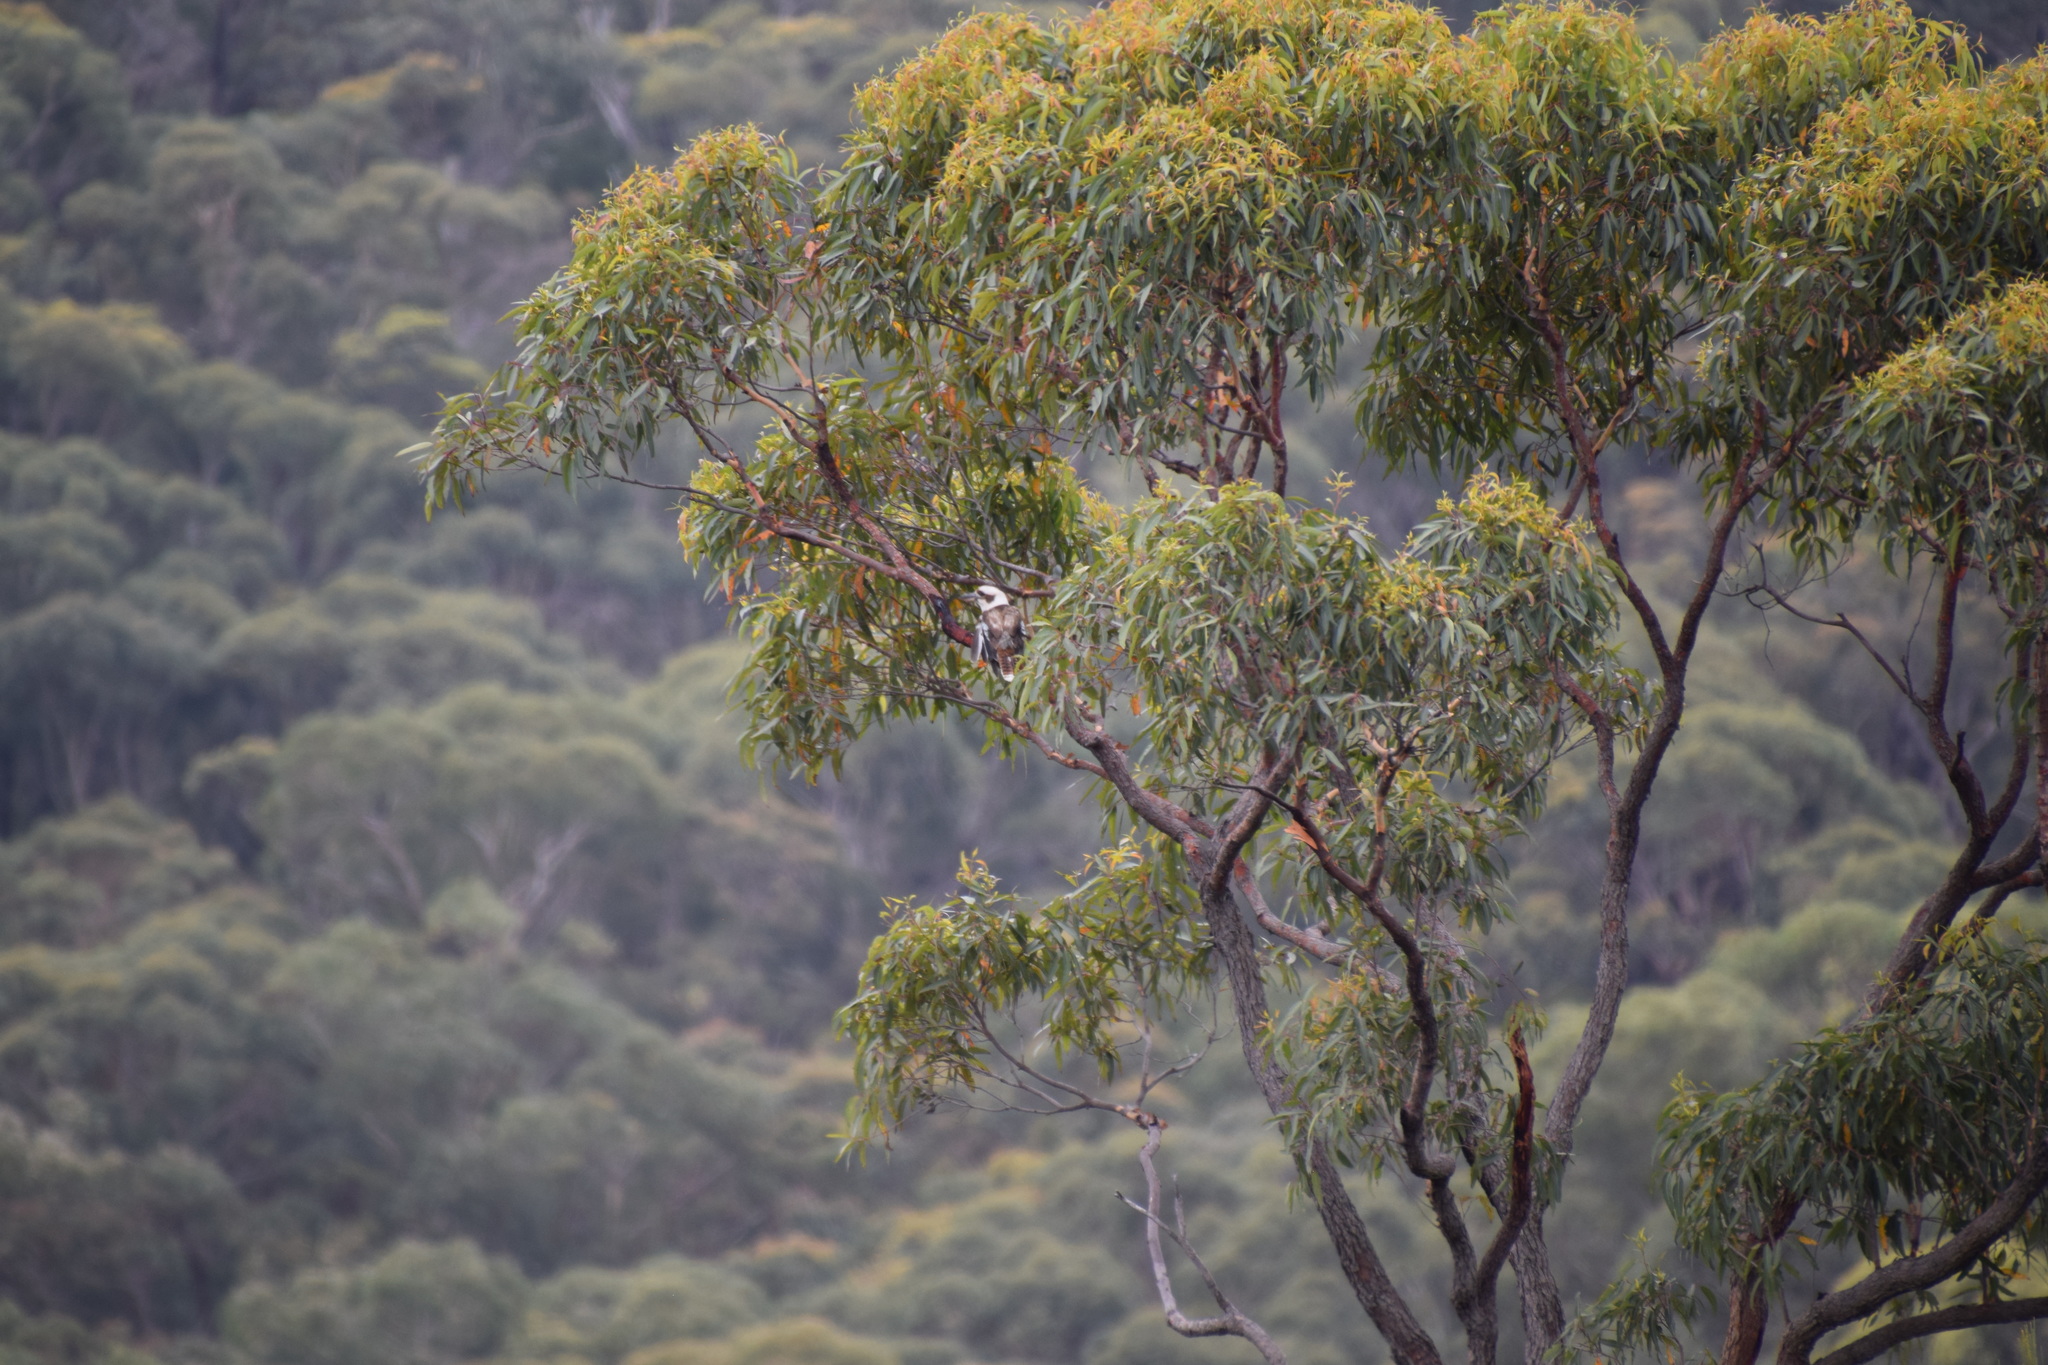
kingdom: Animalia
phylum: Chordata
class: Aves
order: Coraciiformes
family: Alcedinidae
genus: Dacelo
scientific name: Dacelo novaeguineae
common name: Laughing kookaburra
